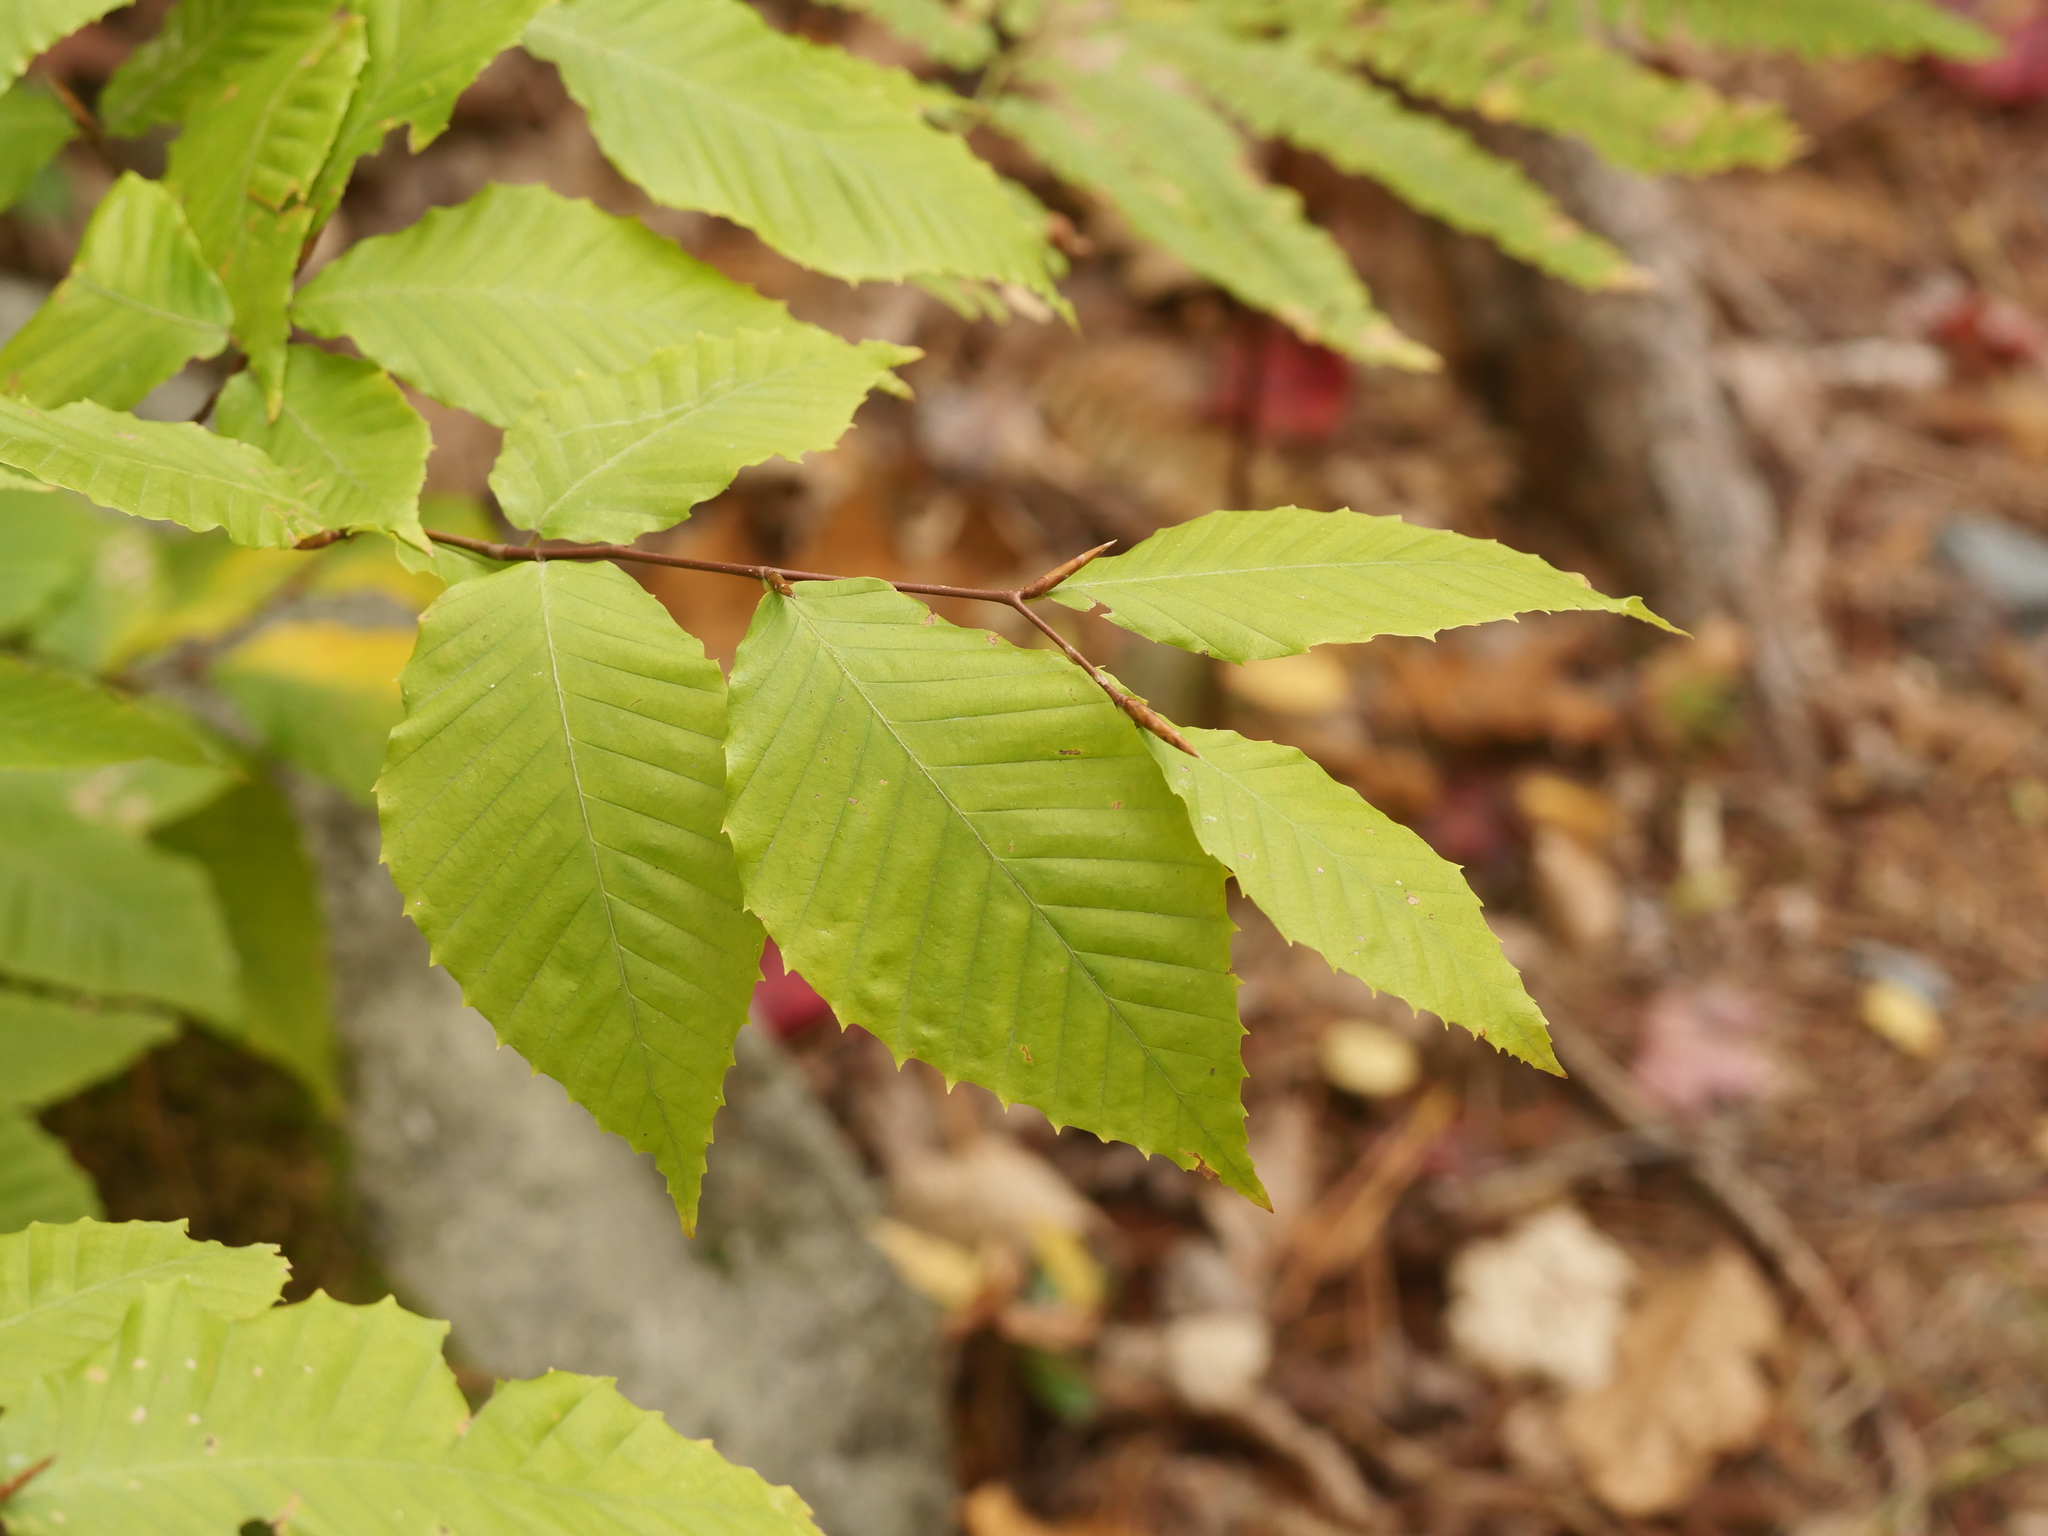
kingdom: Plantae
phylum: Tracheophyta
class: Magnoliopsida
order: Fagales
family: Fagaceae
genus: Fagus
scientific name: Fagus grandifolia
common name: American beech
